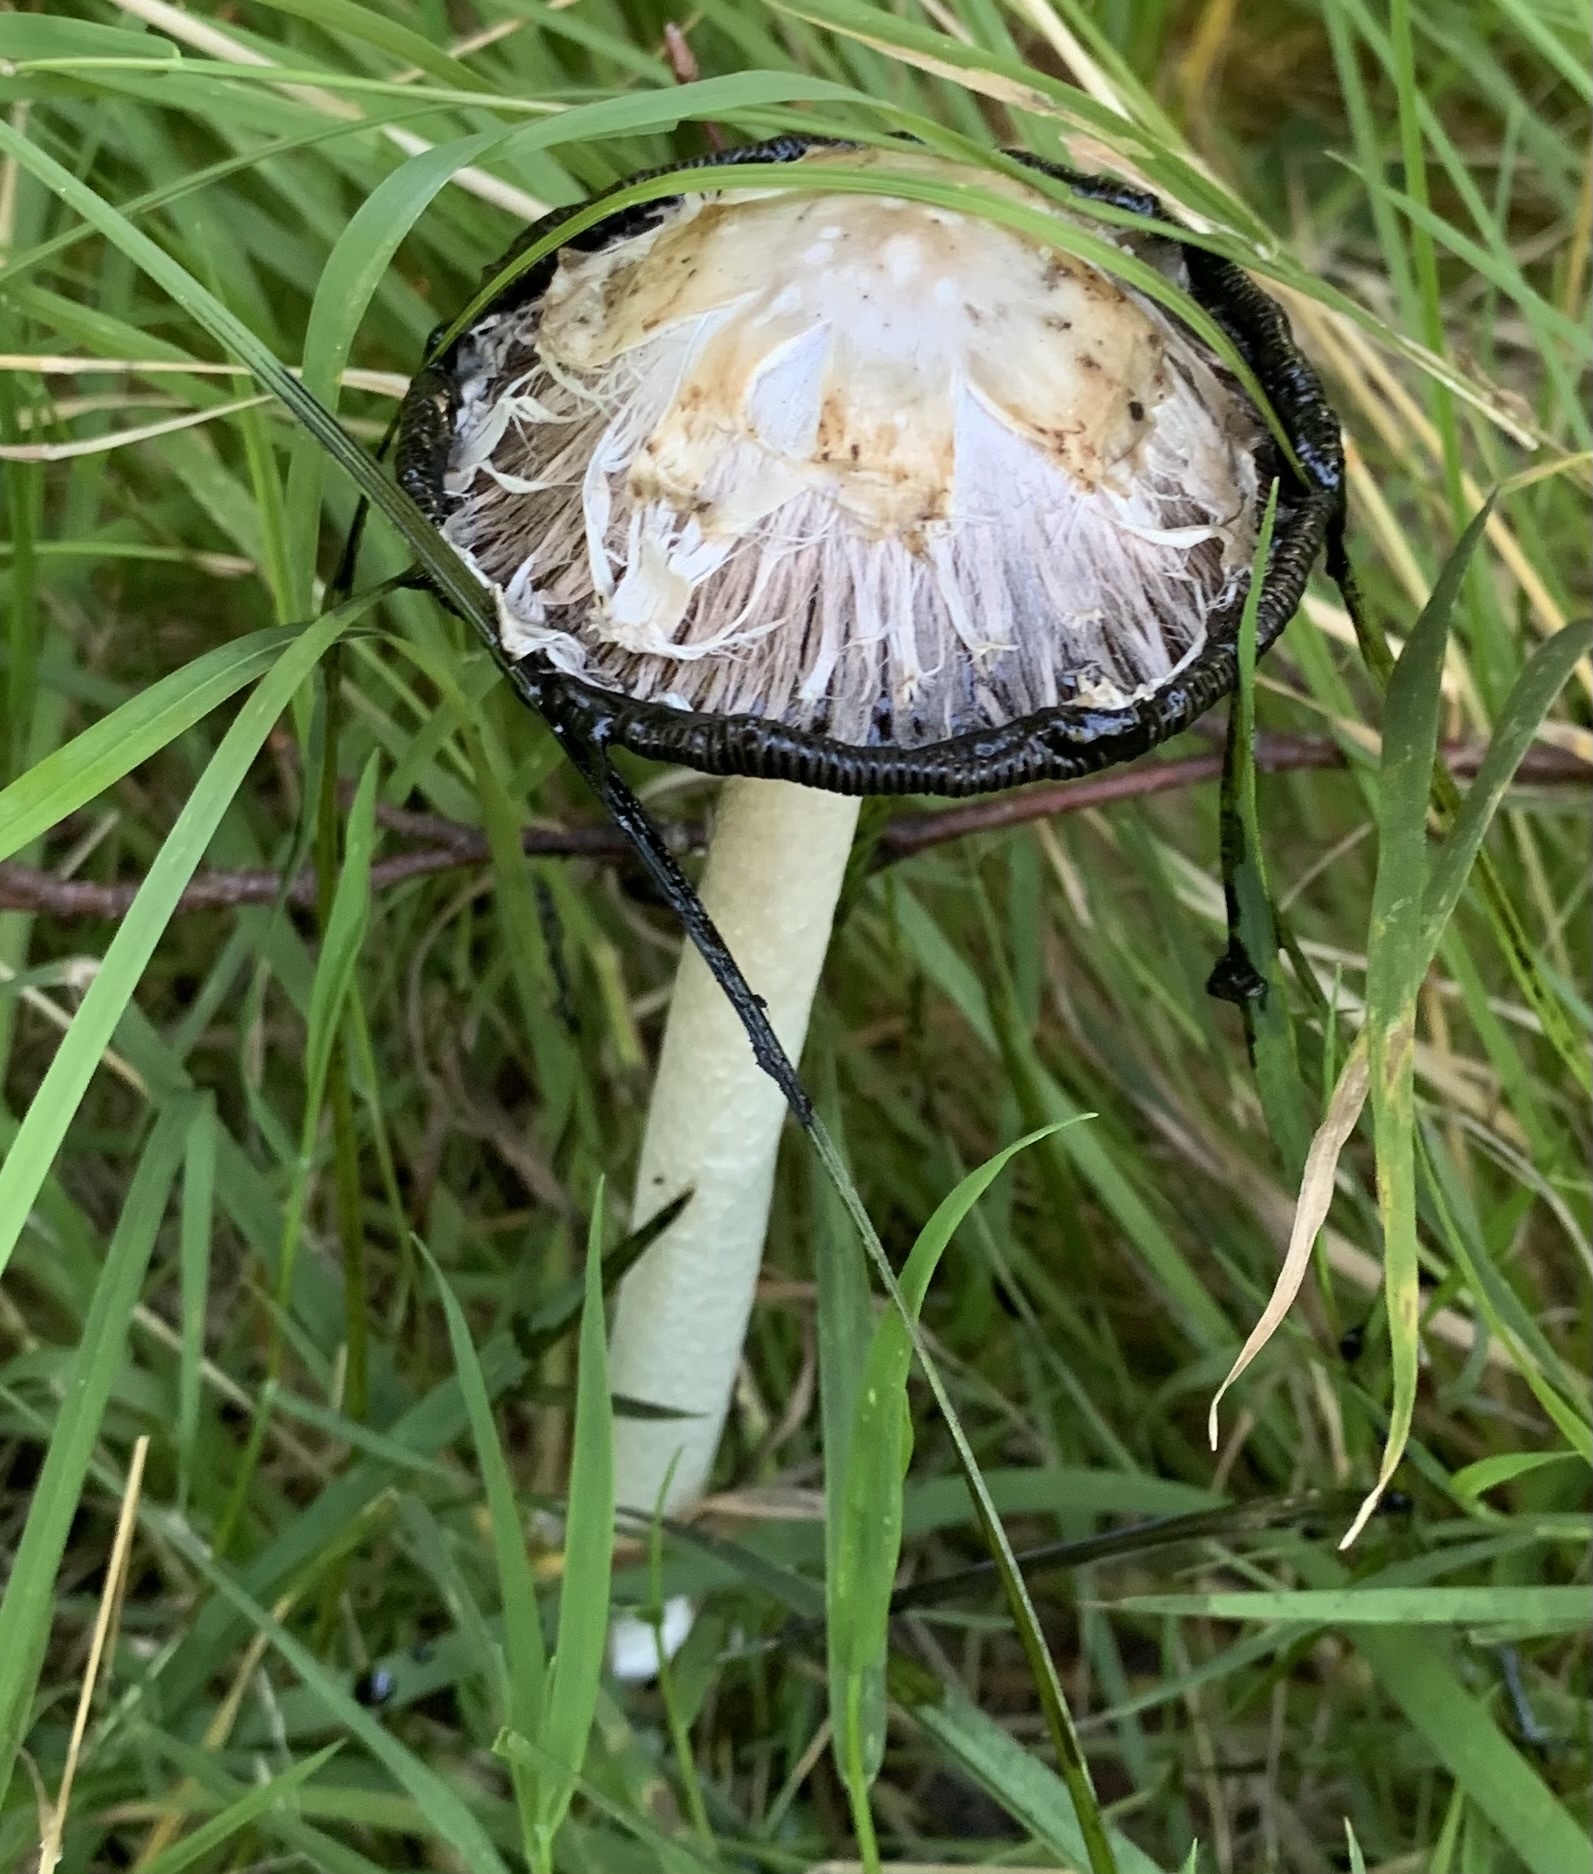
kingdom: Fungi
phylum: Basidiomycota
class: Agaricomycetes
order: Agaricales
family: Agaricaceae
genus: Coprinus
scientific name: Coprinus comatus
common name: Lawyer's wig
